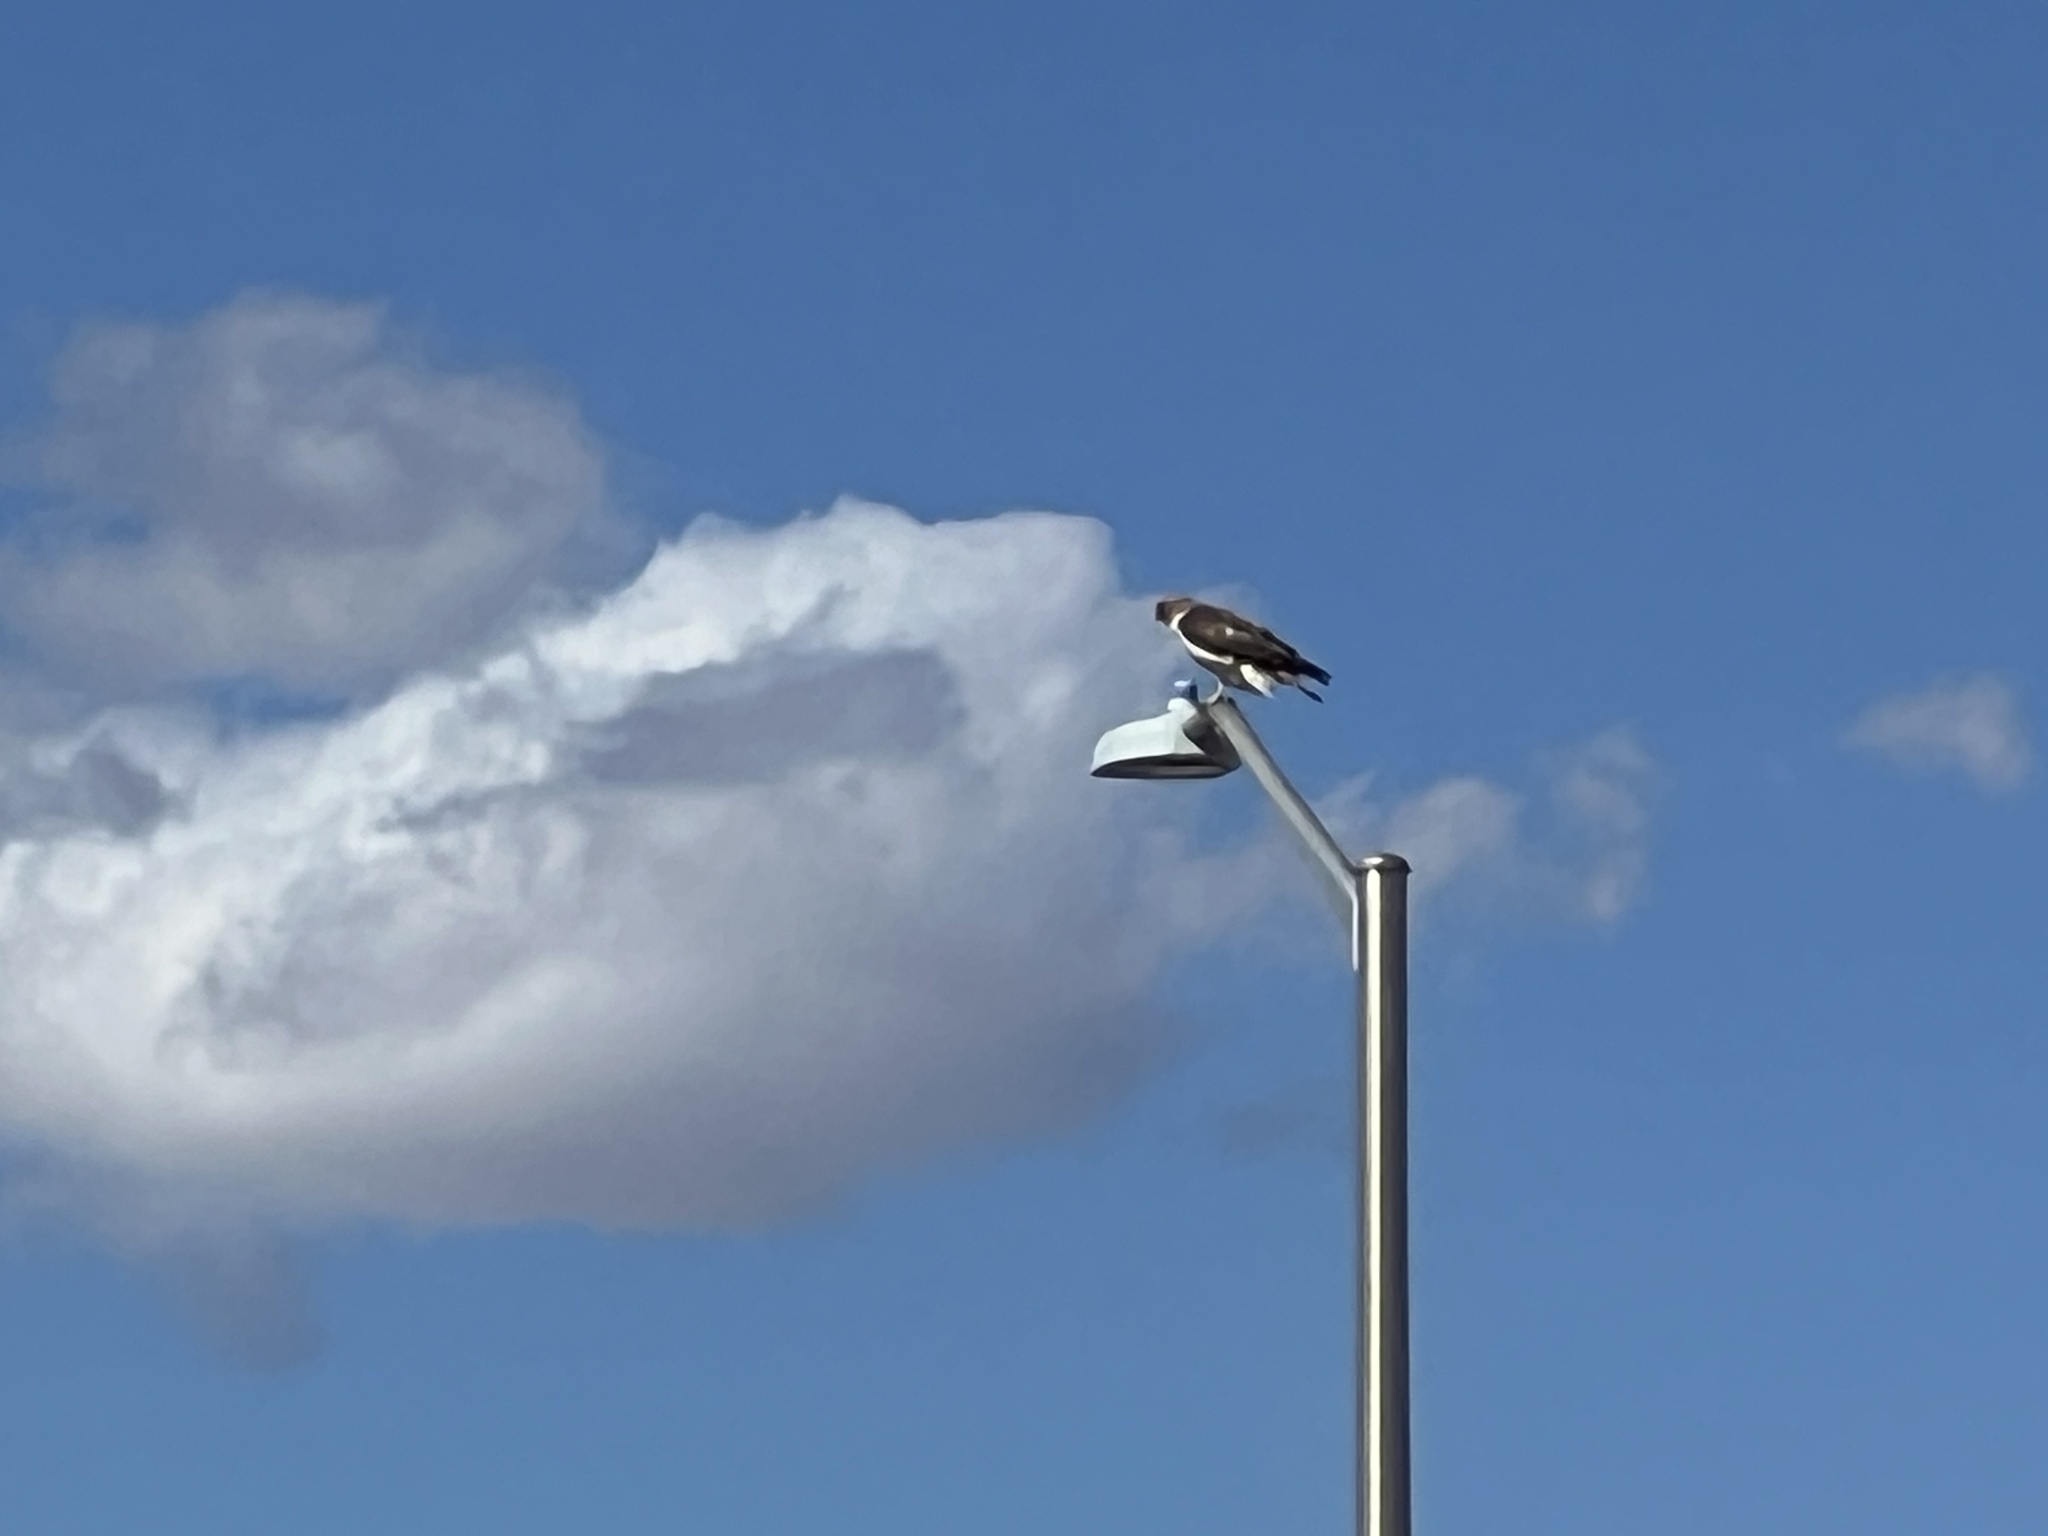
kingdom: Animalia
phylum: Chordata
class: Aves
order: Accipitriformes
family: Accipitridae
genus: Buteo
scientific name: Buteo swainsoni
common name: Swainson's hawk
